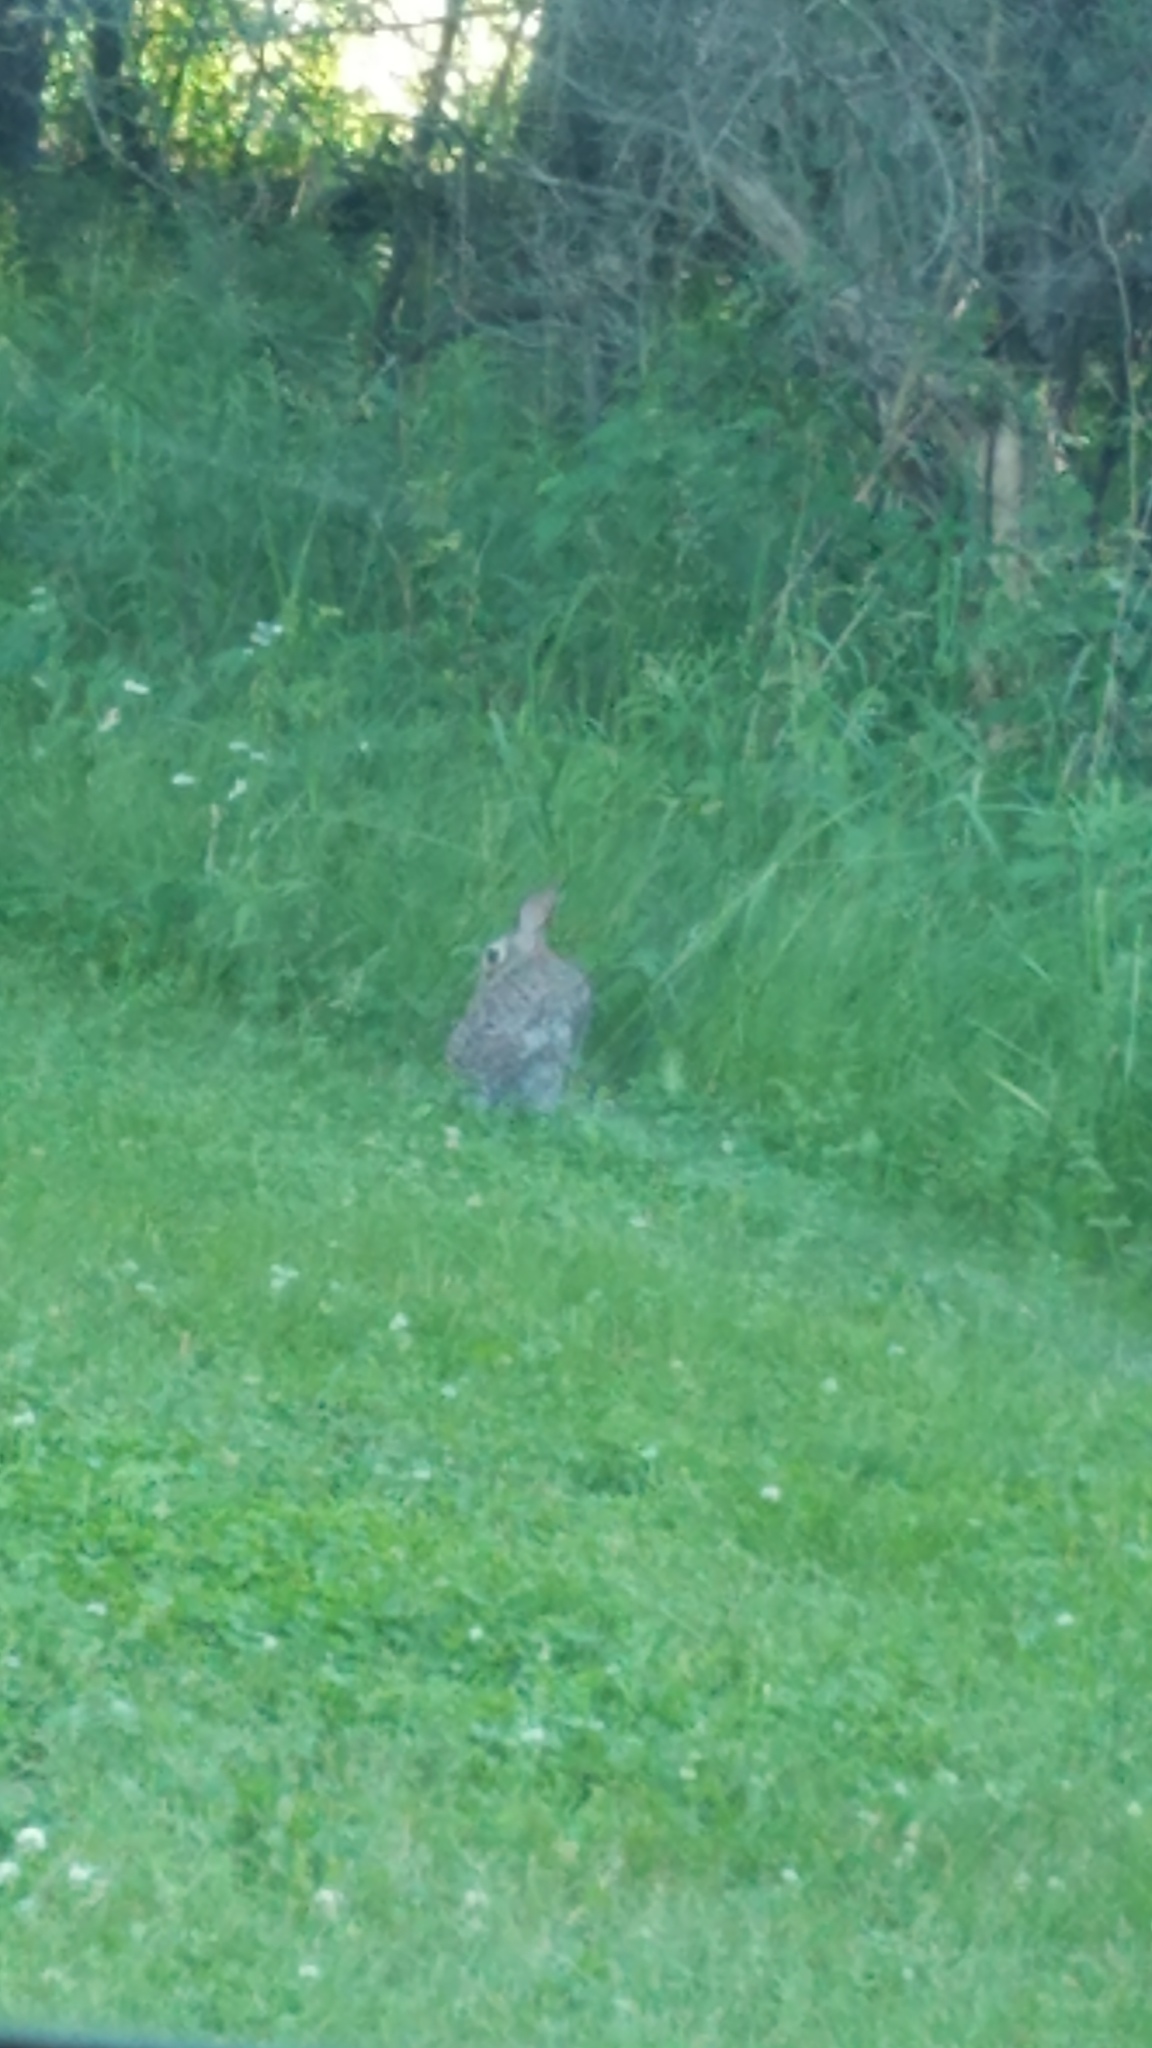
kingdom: Animalia
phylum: Chordata
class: Mammalia
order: Lagomorpha
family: Leporidae
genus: Sylvilagus
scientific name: Sylvilagus floridanus
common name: Eastern cottontail
